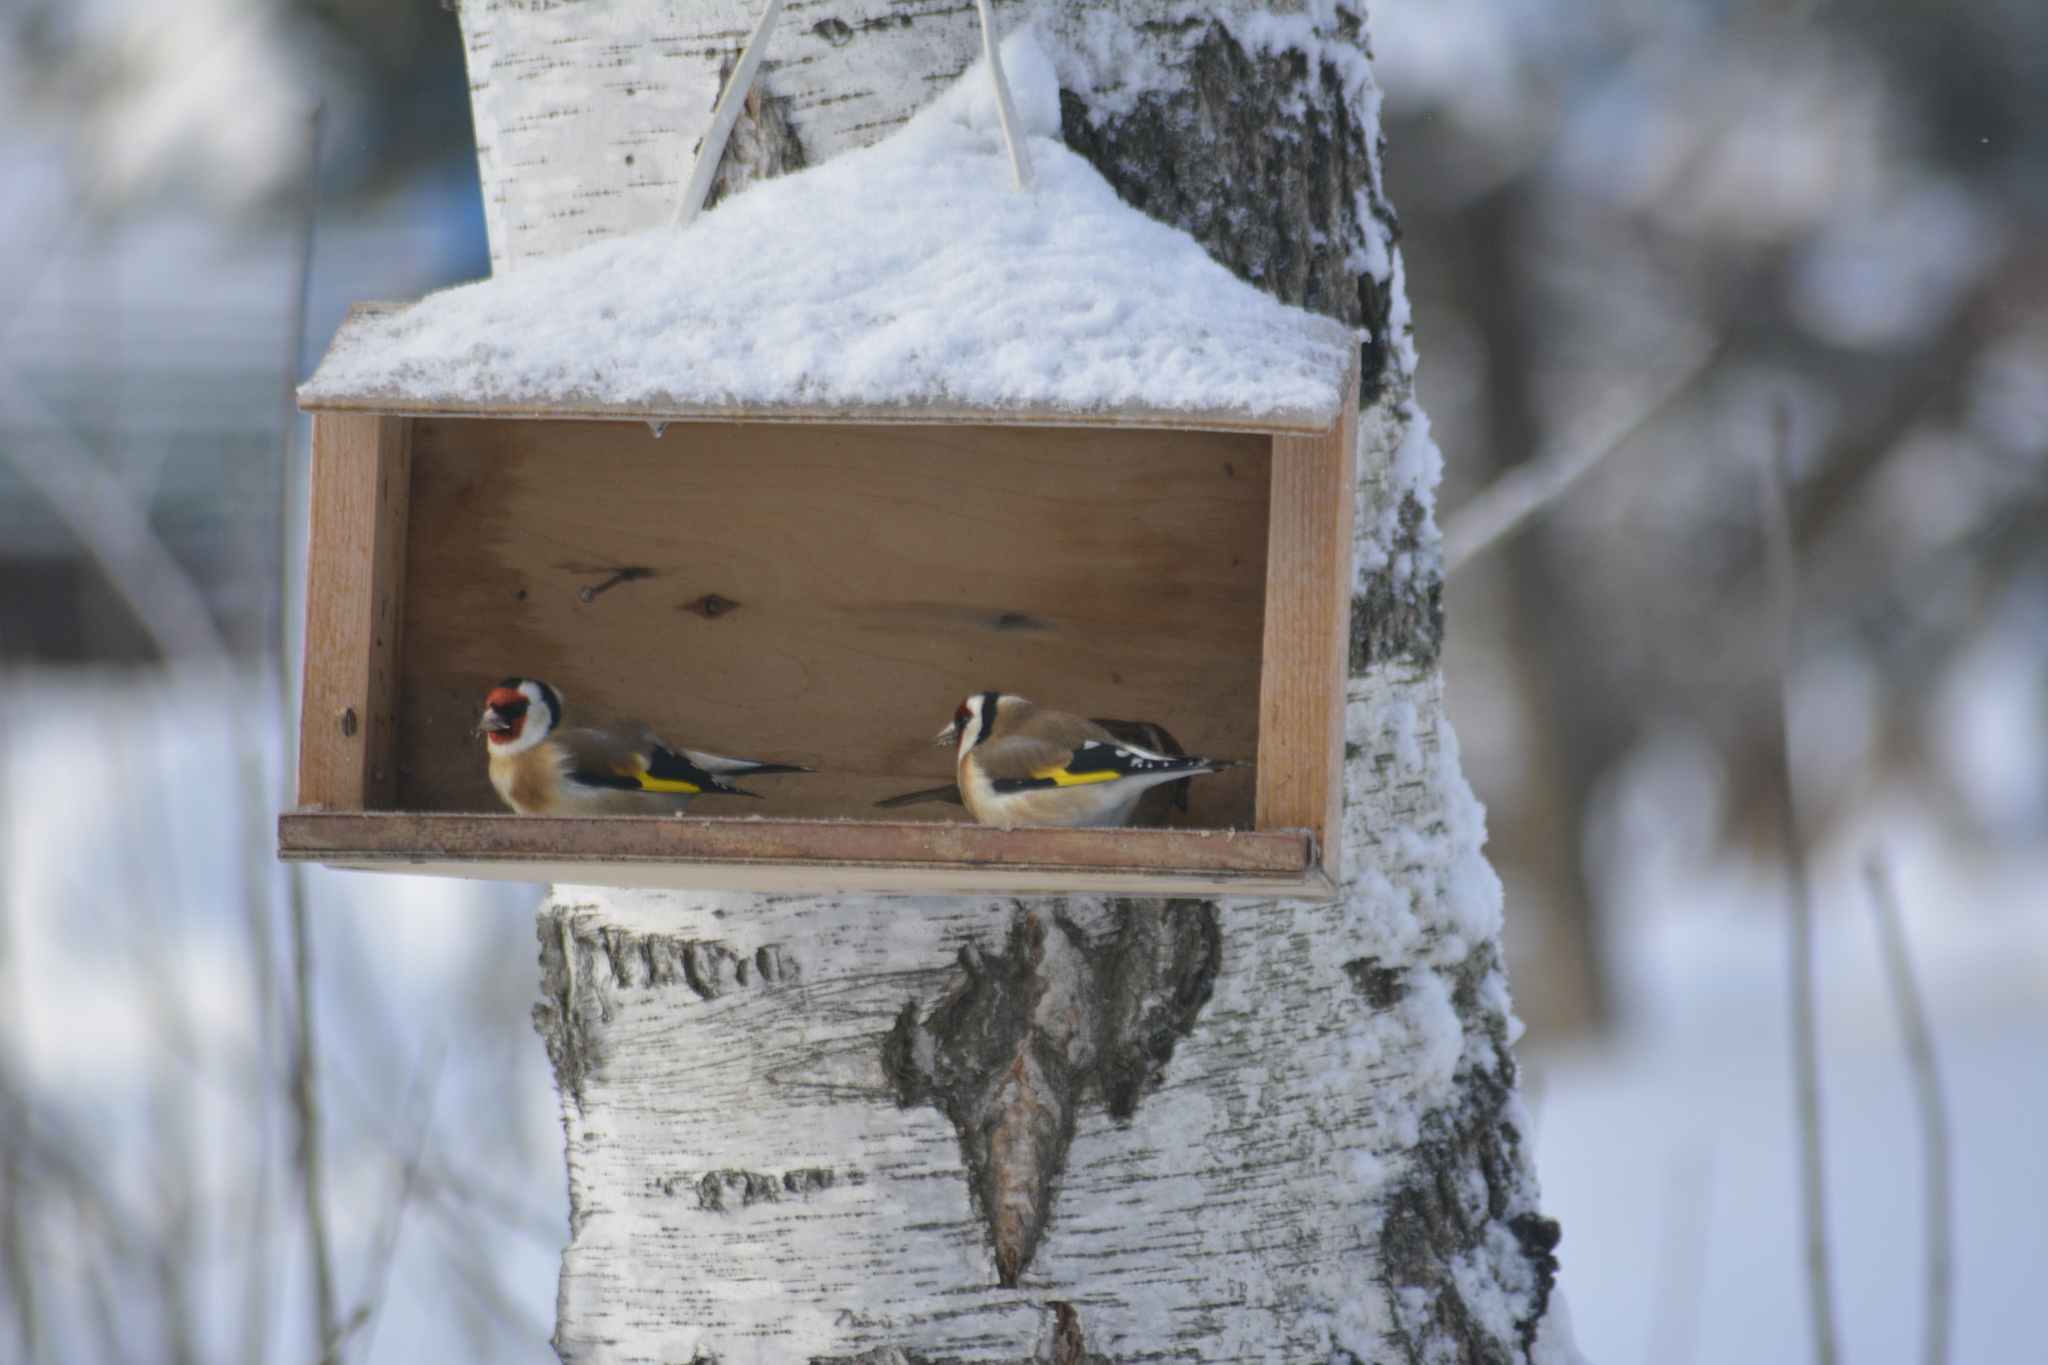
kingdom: Animalia
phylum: Chordata
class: Aves
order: Passeriformes
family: Fringillidae
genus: Carduelis
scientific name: Carduelis carduelis
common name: European goldfinch
